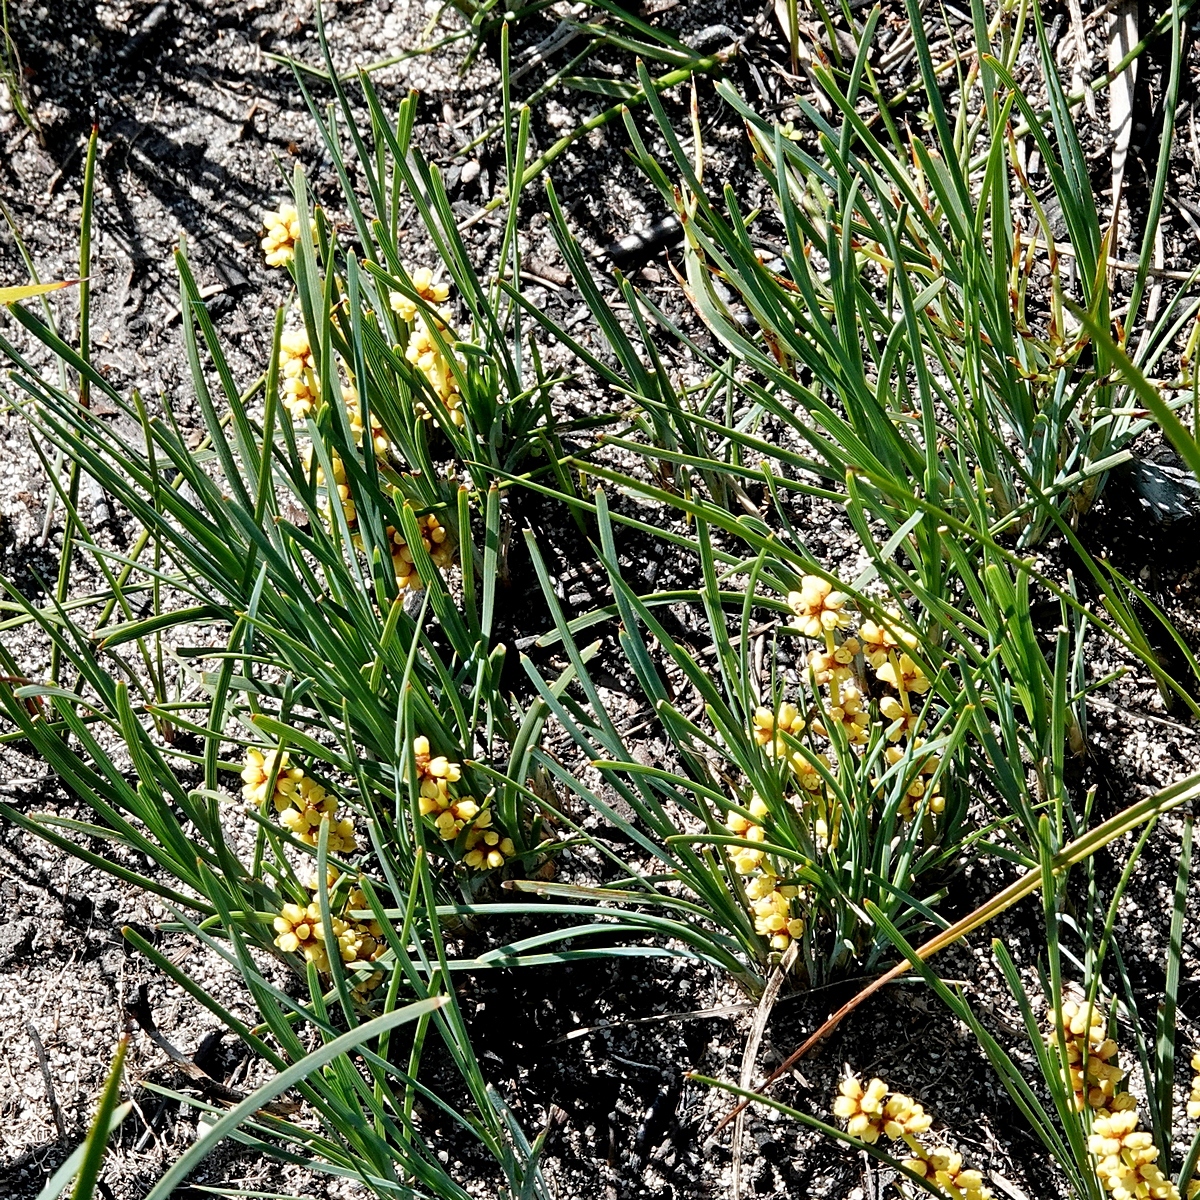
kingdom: Plantae
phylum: Tracheophyta
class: Liliopsida
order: Asparagales
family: Asparagaceae
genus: Lomandra
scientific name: Lomandra glauca
